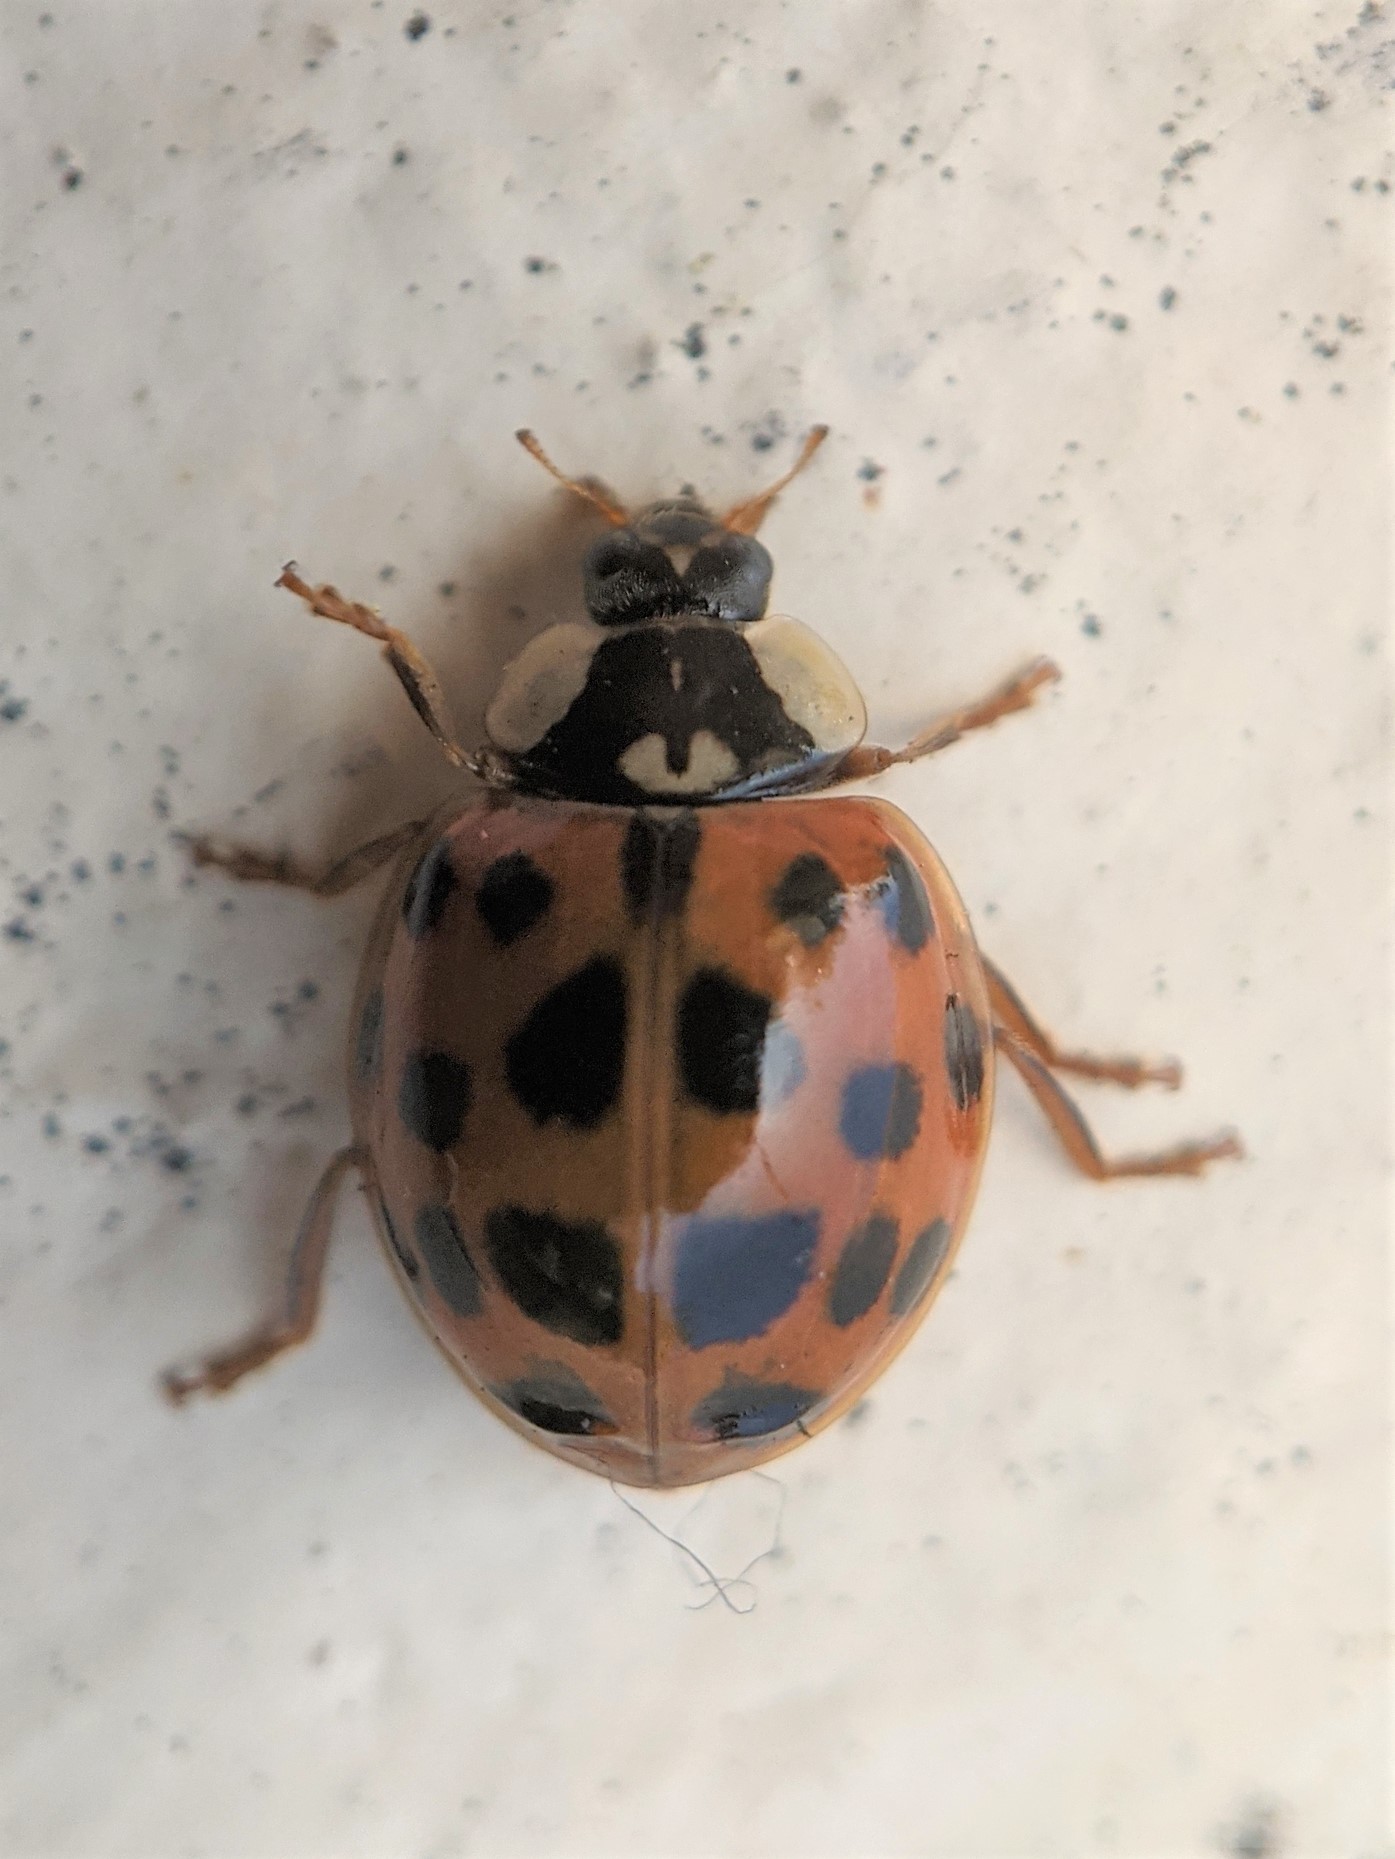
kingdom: Animalia
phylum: Arthropoda
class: Insecta
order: Coleoptera
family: Coccinellidae
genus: Harmonia
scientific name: Harmonia axyridis
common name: Harlequin ladybird
